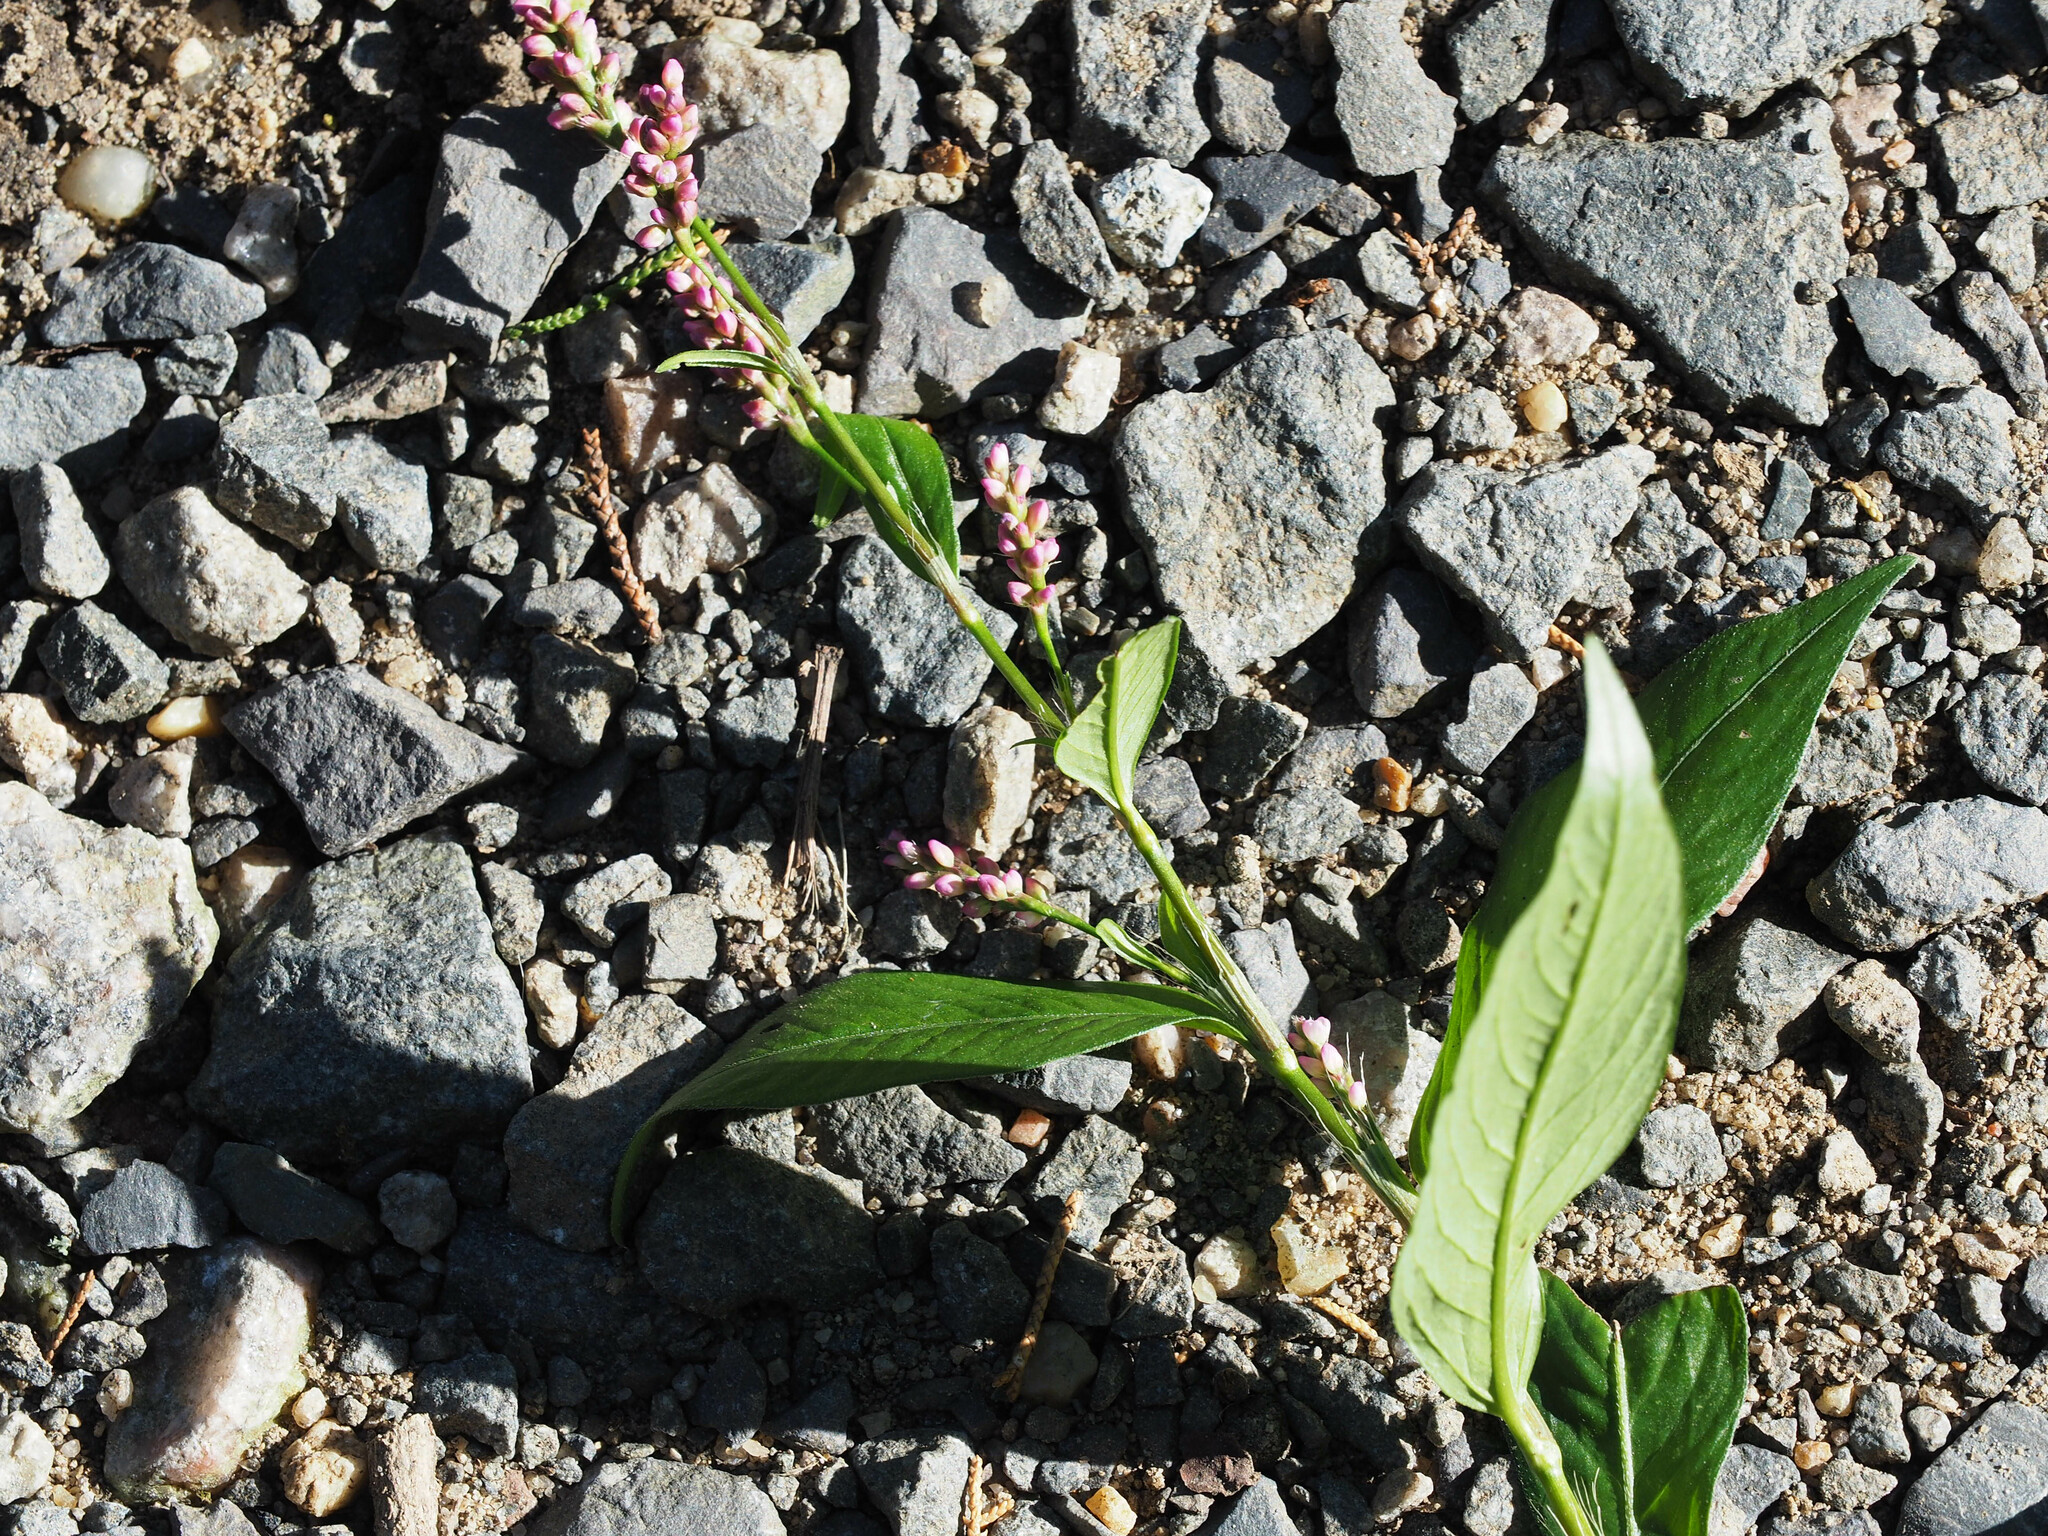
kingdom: Plantae
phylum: Tracheophyta
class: Magnoliopsida
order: Caryophyllales
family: Polygonaceae
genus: Persicaria
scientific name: Persicaria longiseta
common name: Bristly lady's-thumb
